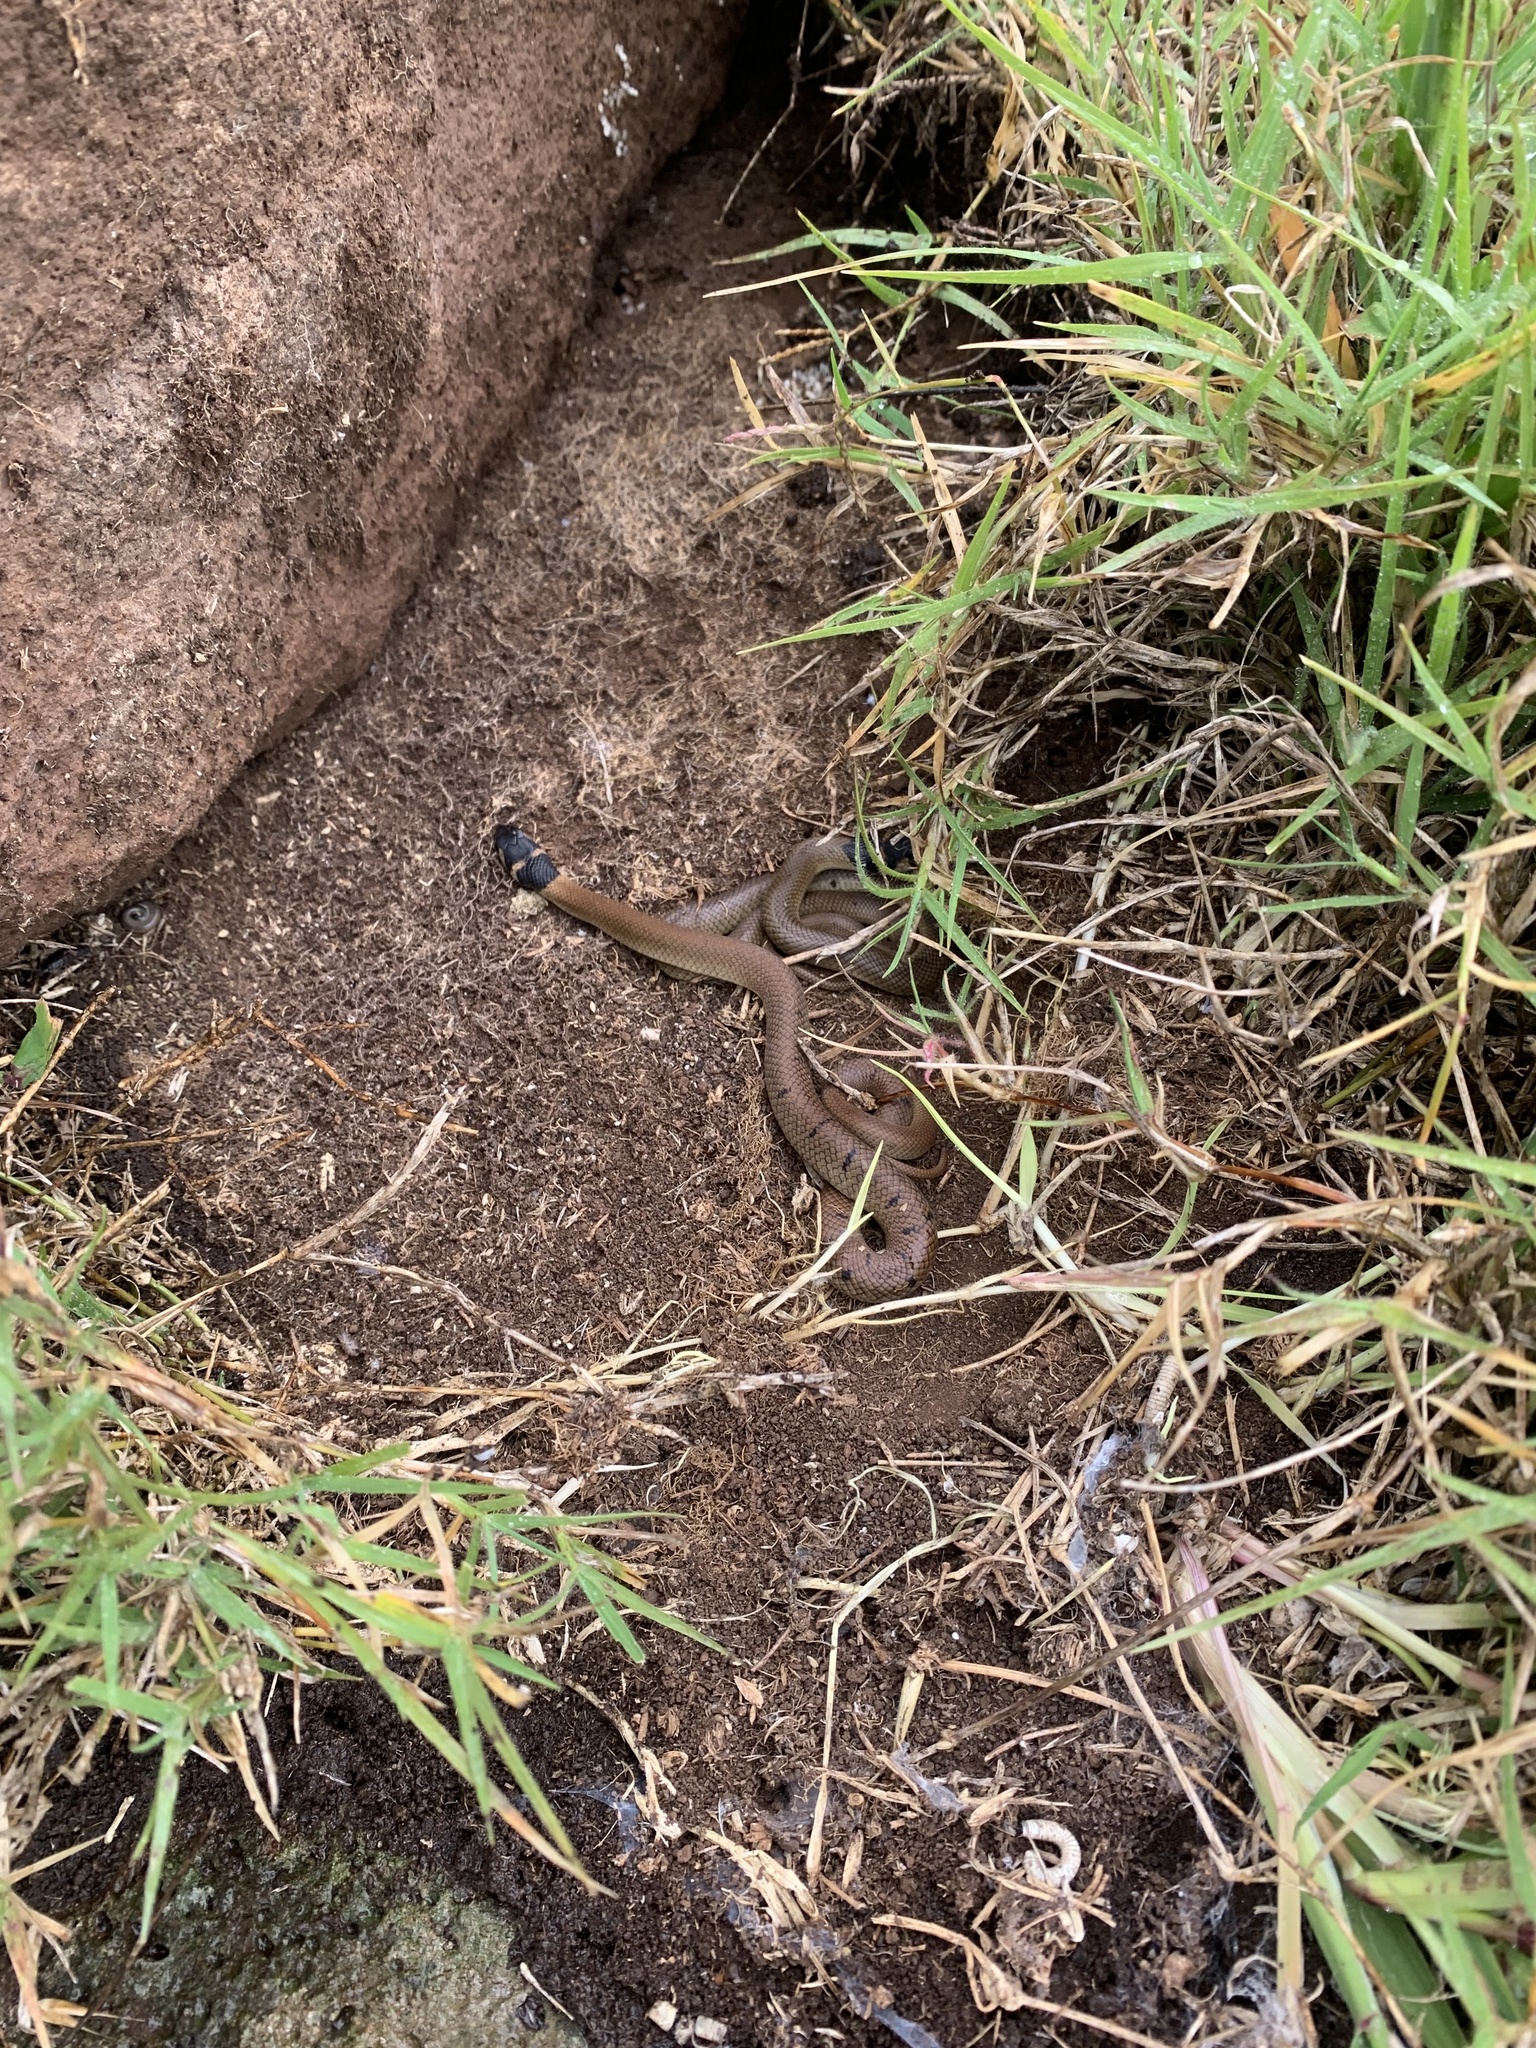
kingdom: Animalia
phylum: Chordata
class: Squamata
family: Elapidae
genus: Pseudonaja
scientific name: Pseudonaja textilis
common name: Eastern brown snake
